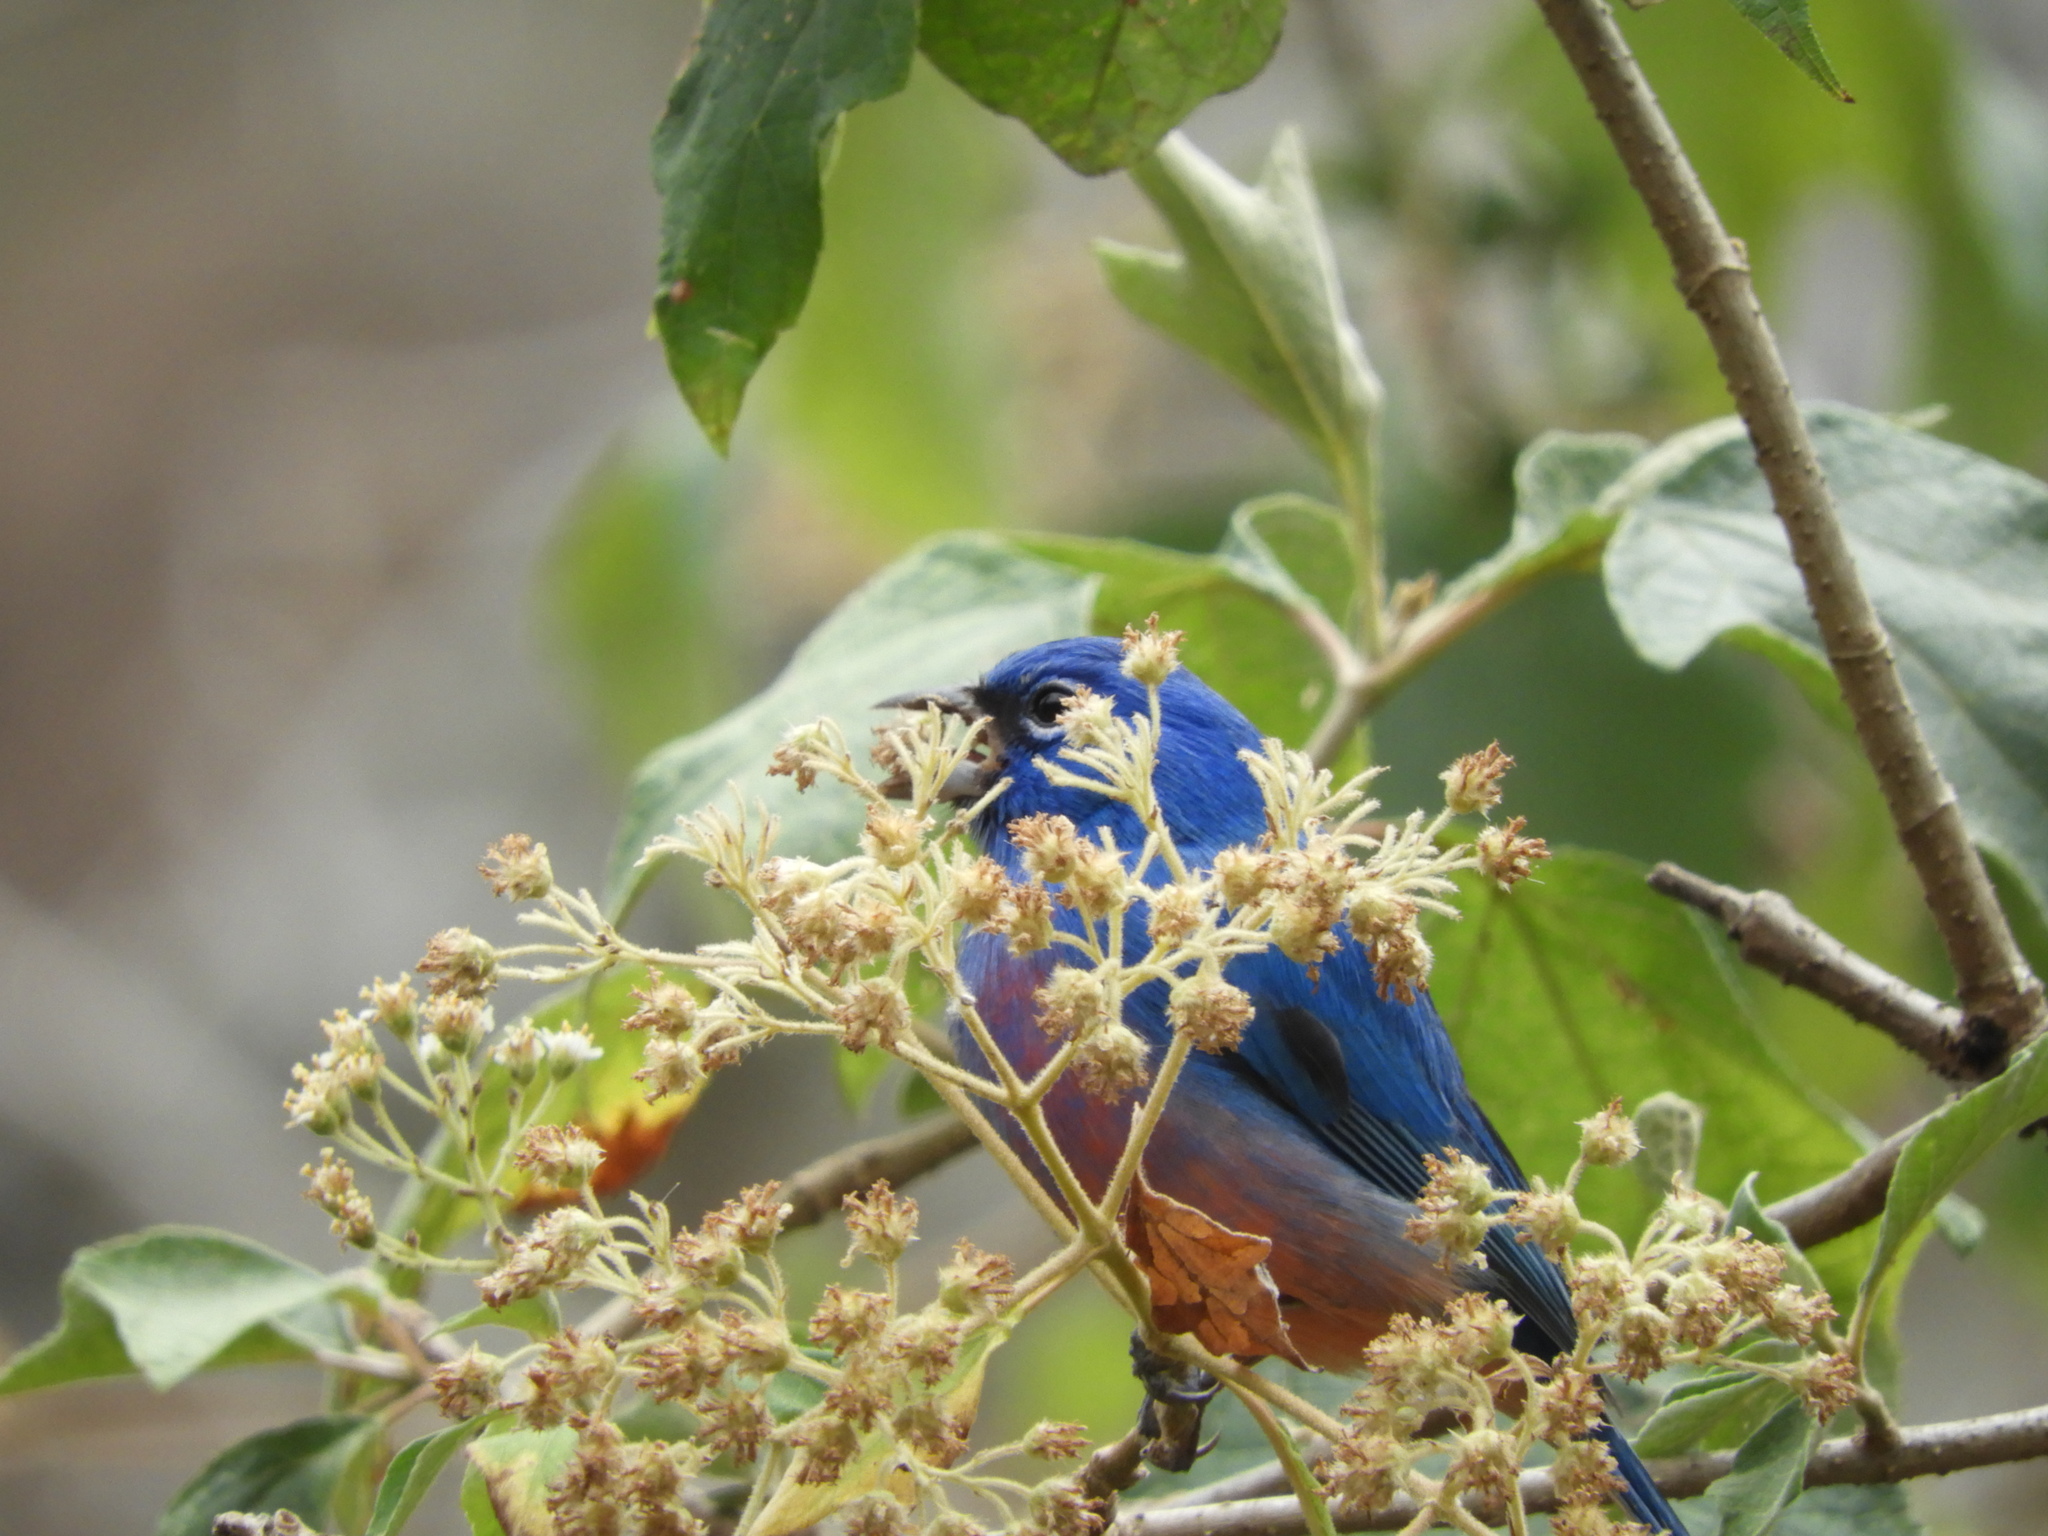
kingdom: Animalia
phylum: Chordata
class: Aves
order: Passeriformes
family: Cardinalidae
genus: Passerina
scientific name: Passerina rositae
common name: Rose-bellied bunting
